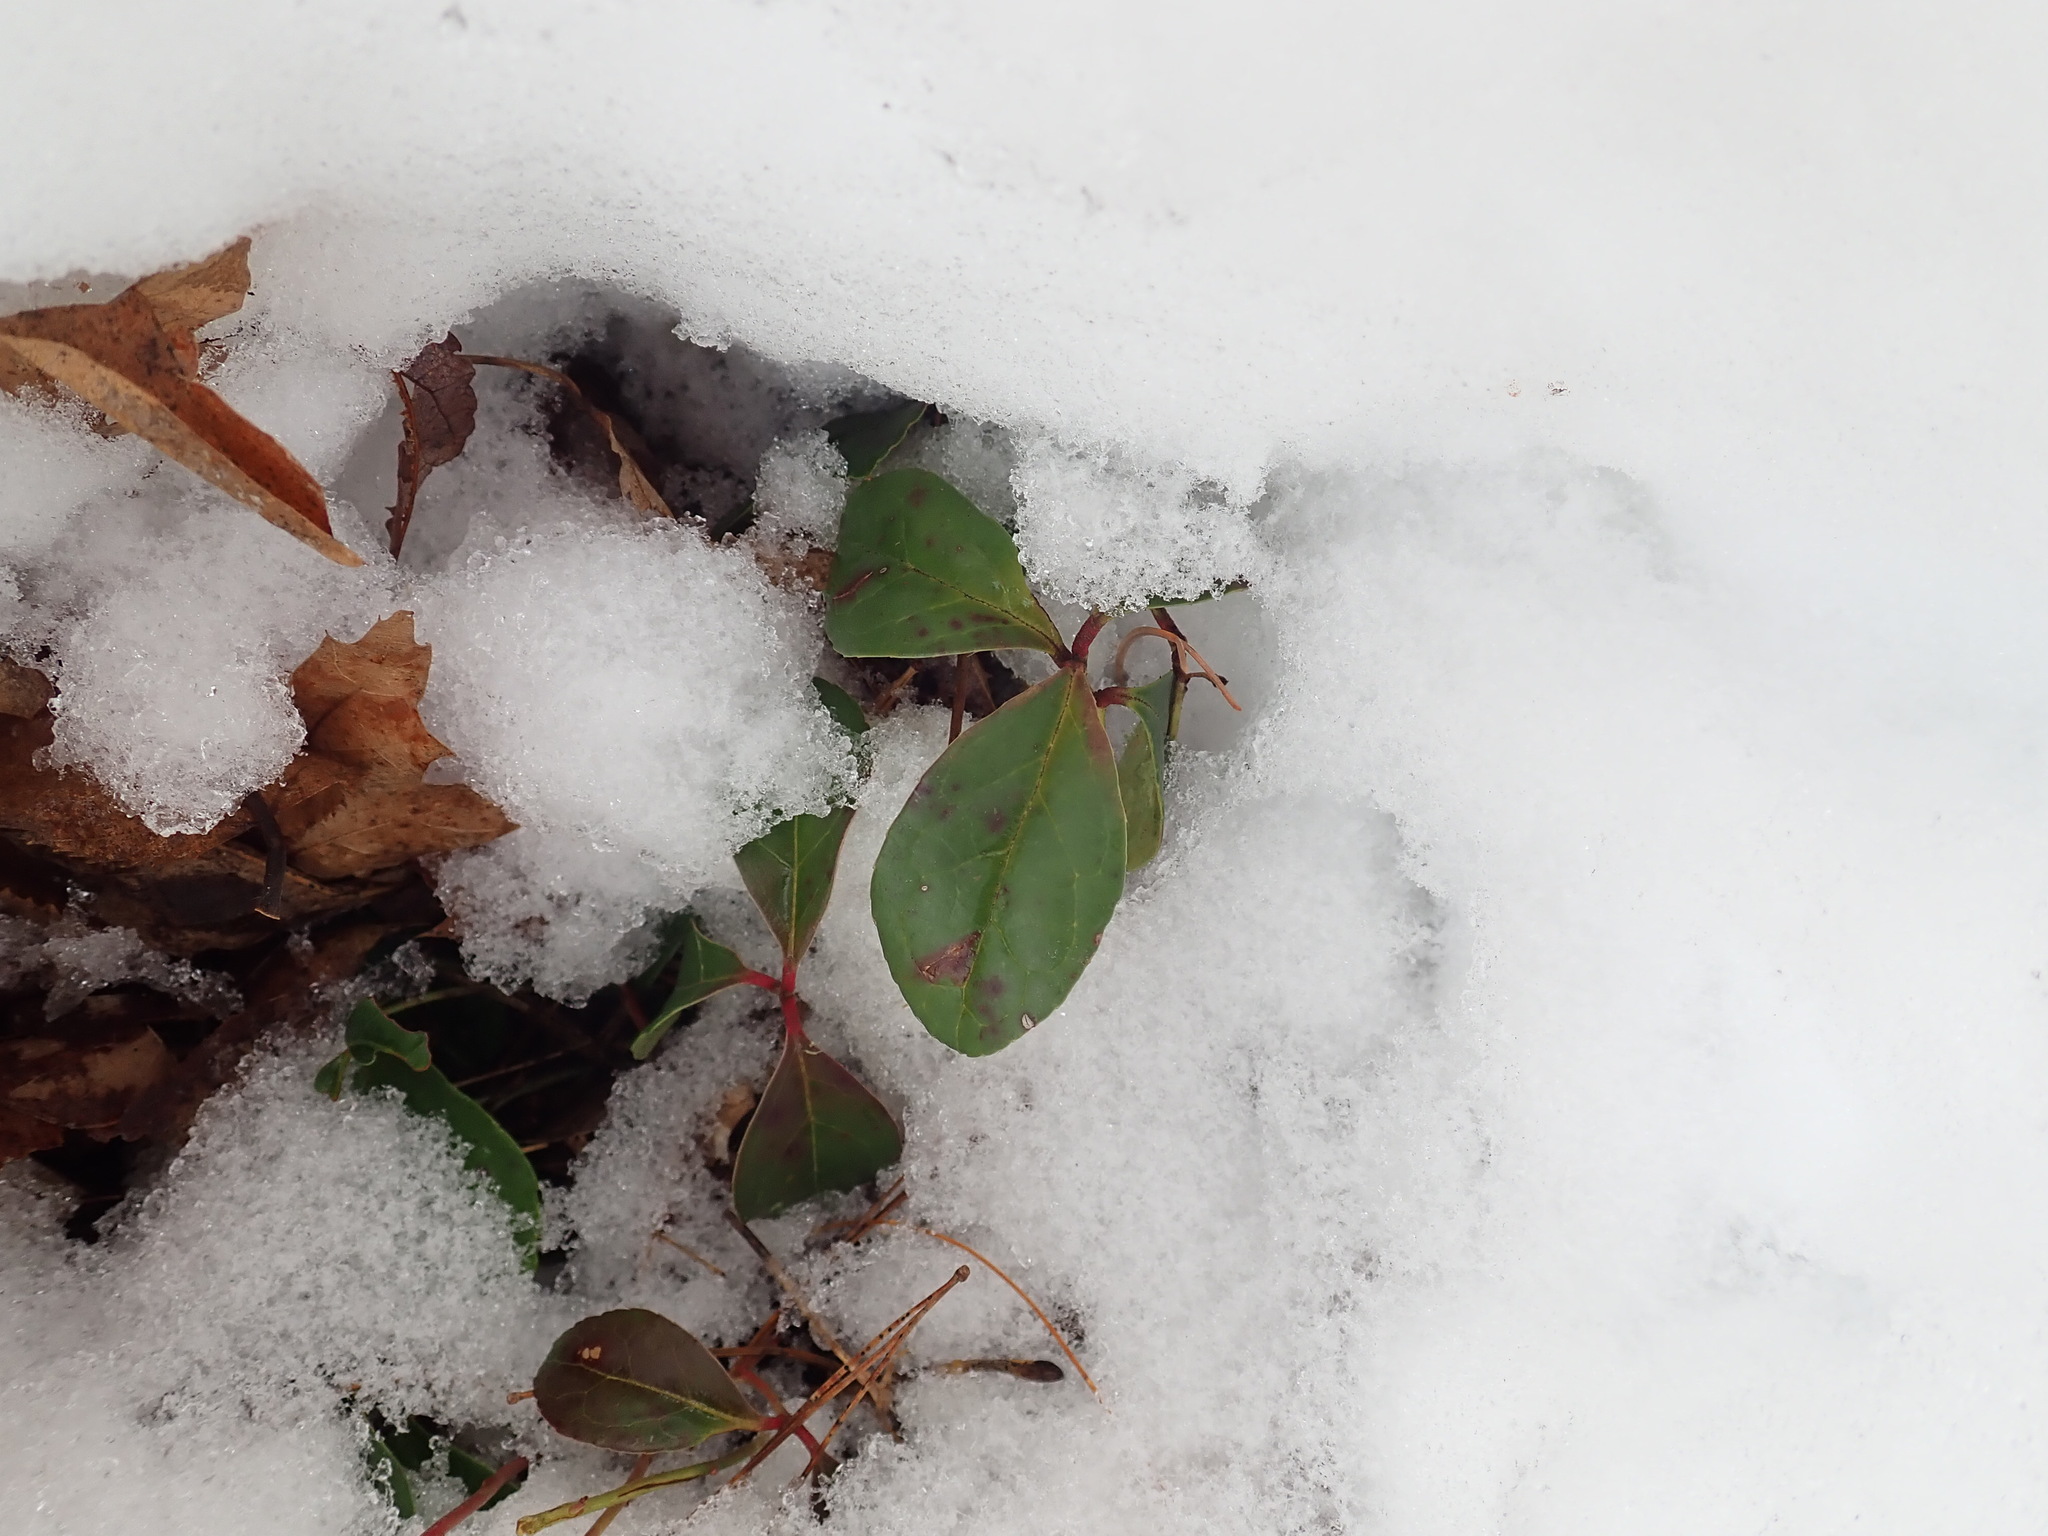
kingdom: Plantae
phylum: Tracheophyta
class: Magnoliopsida
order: Ericales
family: Ericaceae
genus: Gaultheria
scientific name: Gaultheria procumbens
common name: Checkerberry
